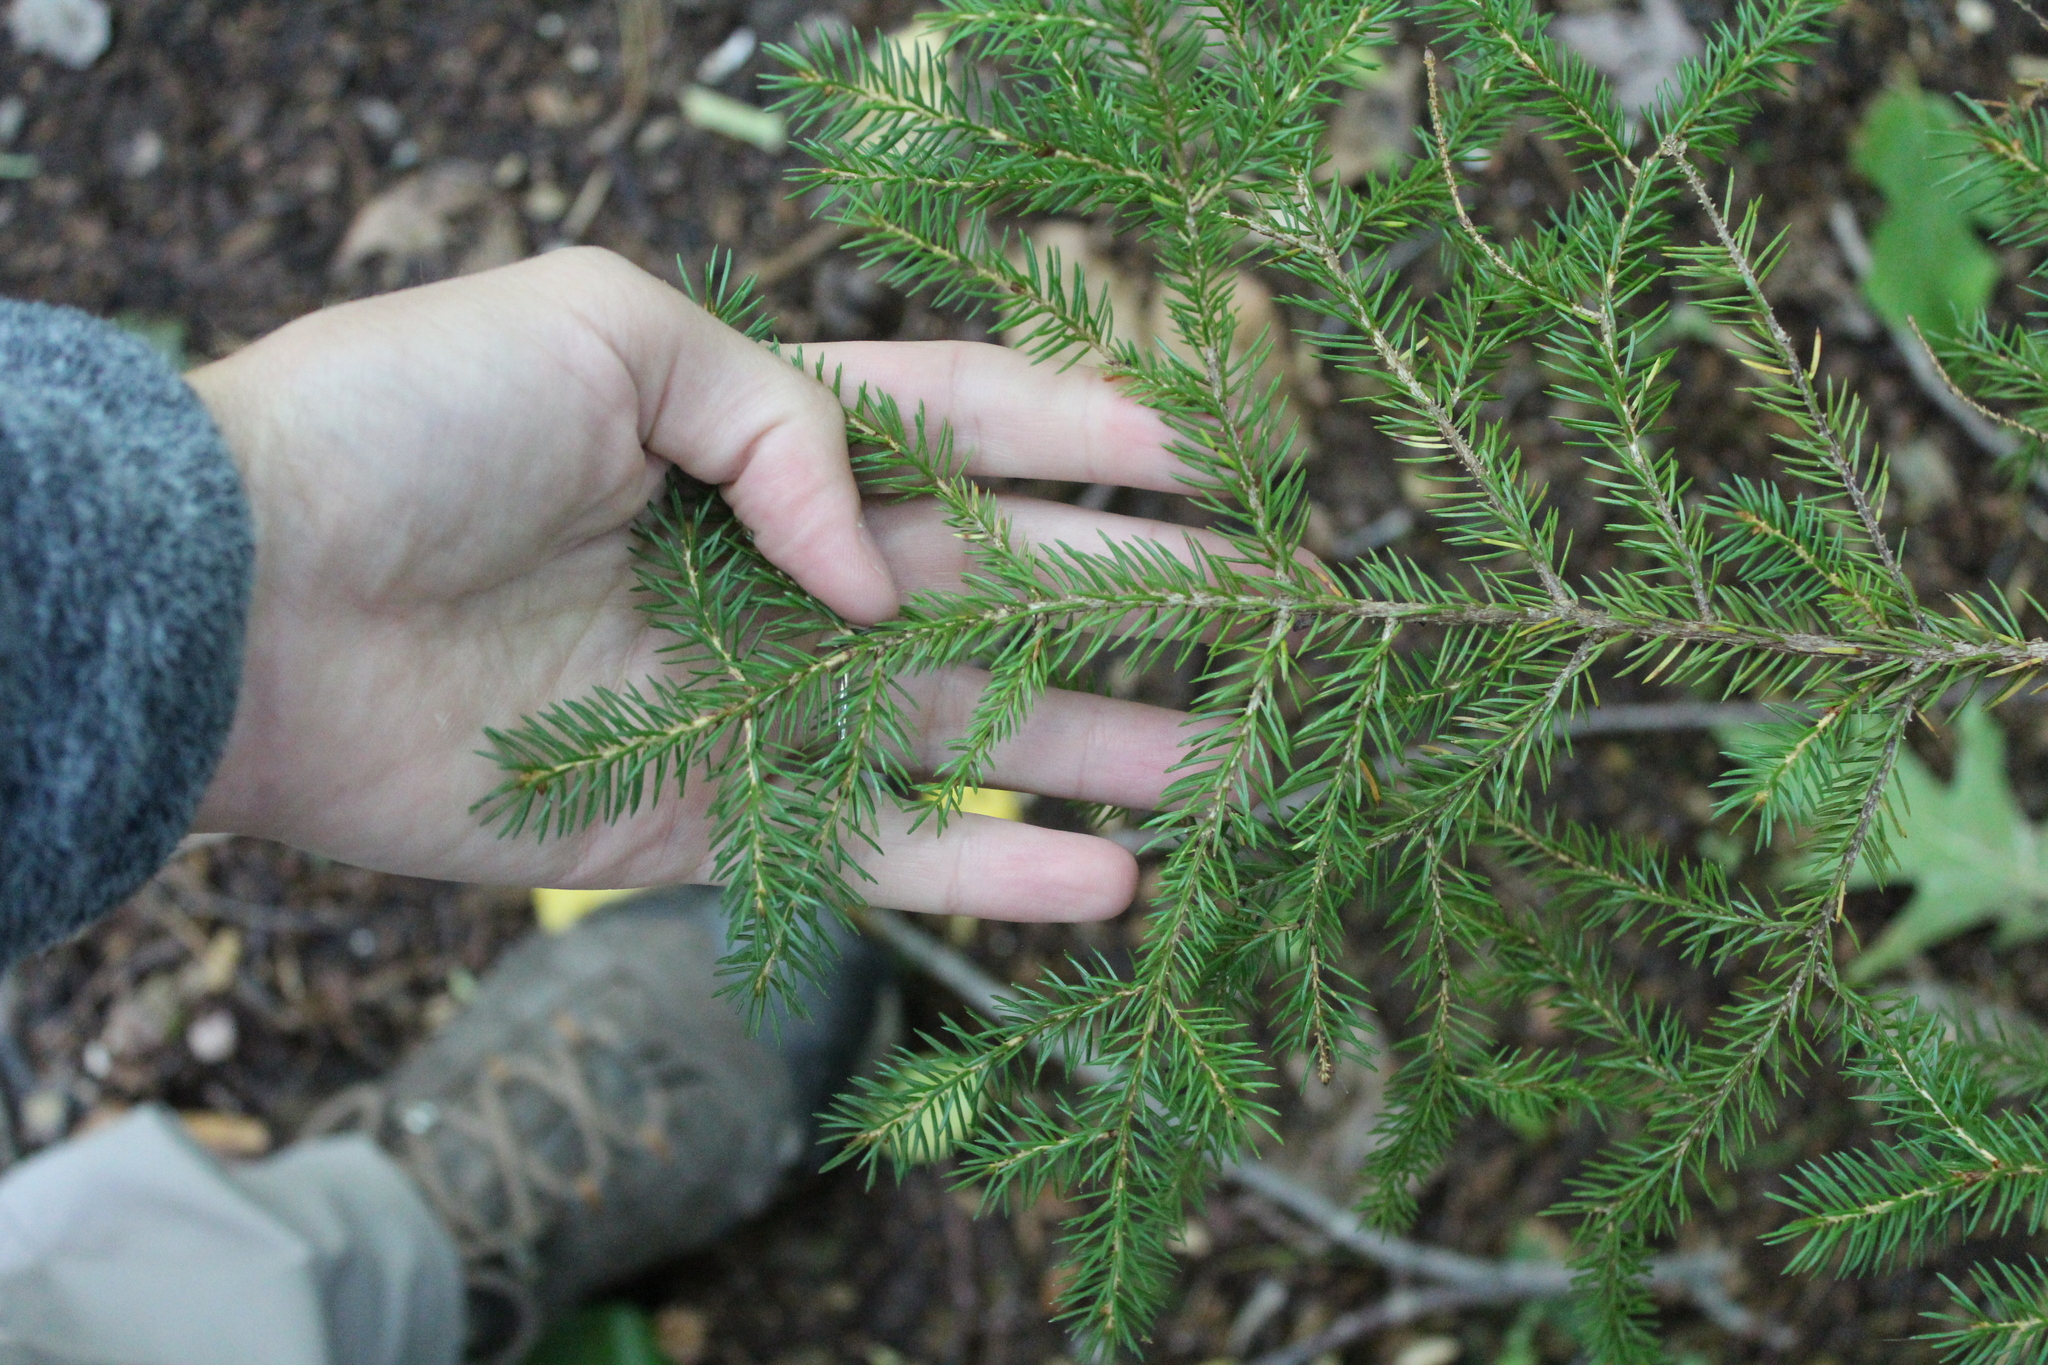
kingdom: Plantae
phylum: Tracheophyta
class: Pinopsida
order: Pinales
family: Pinaceae
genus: Picea
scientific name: Picea rubens
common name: Red spruce
